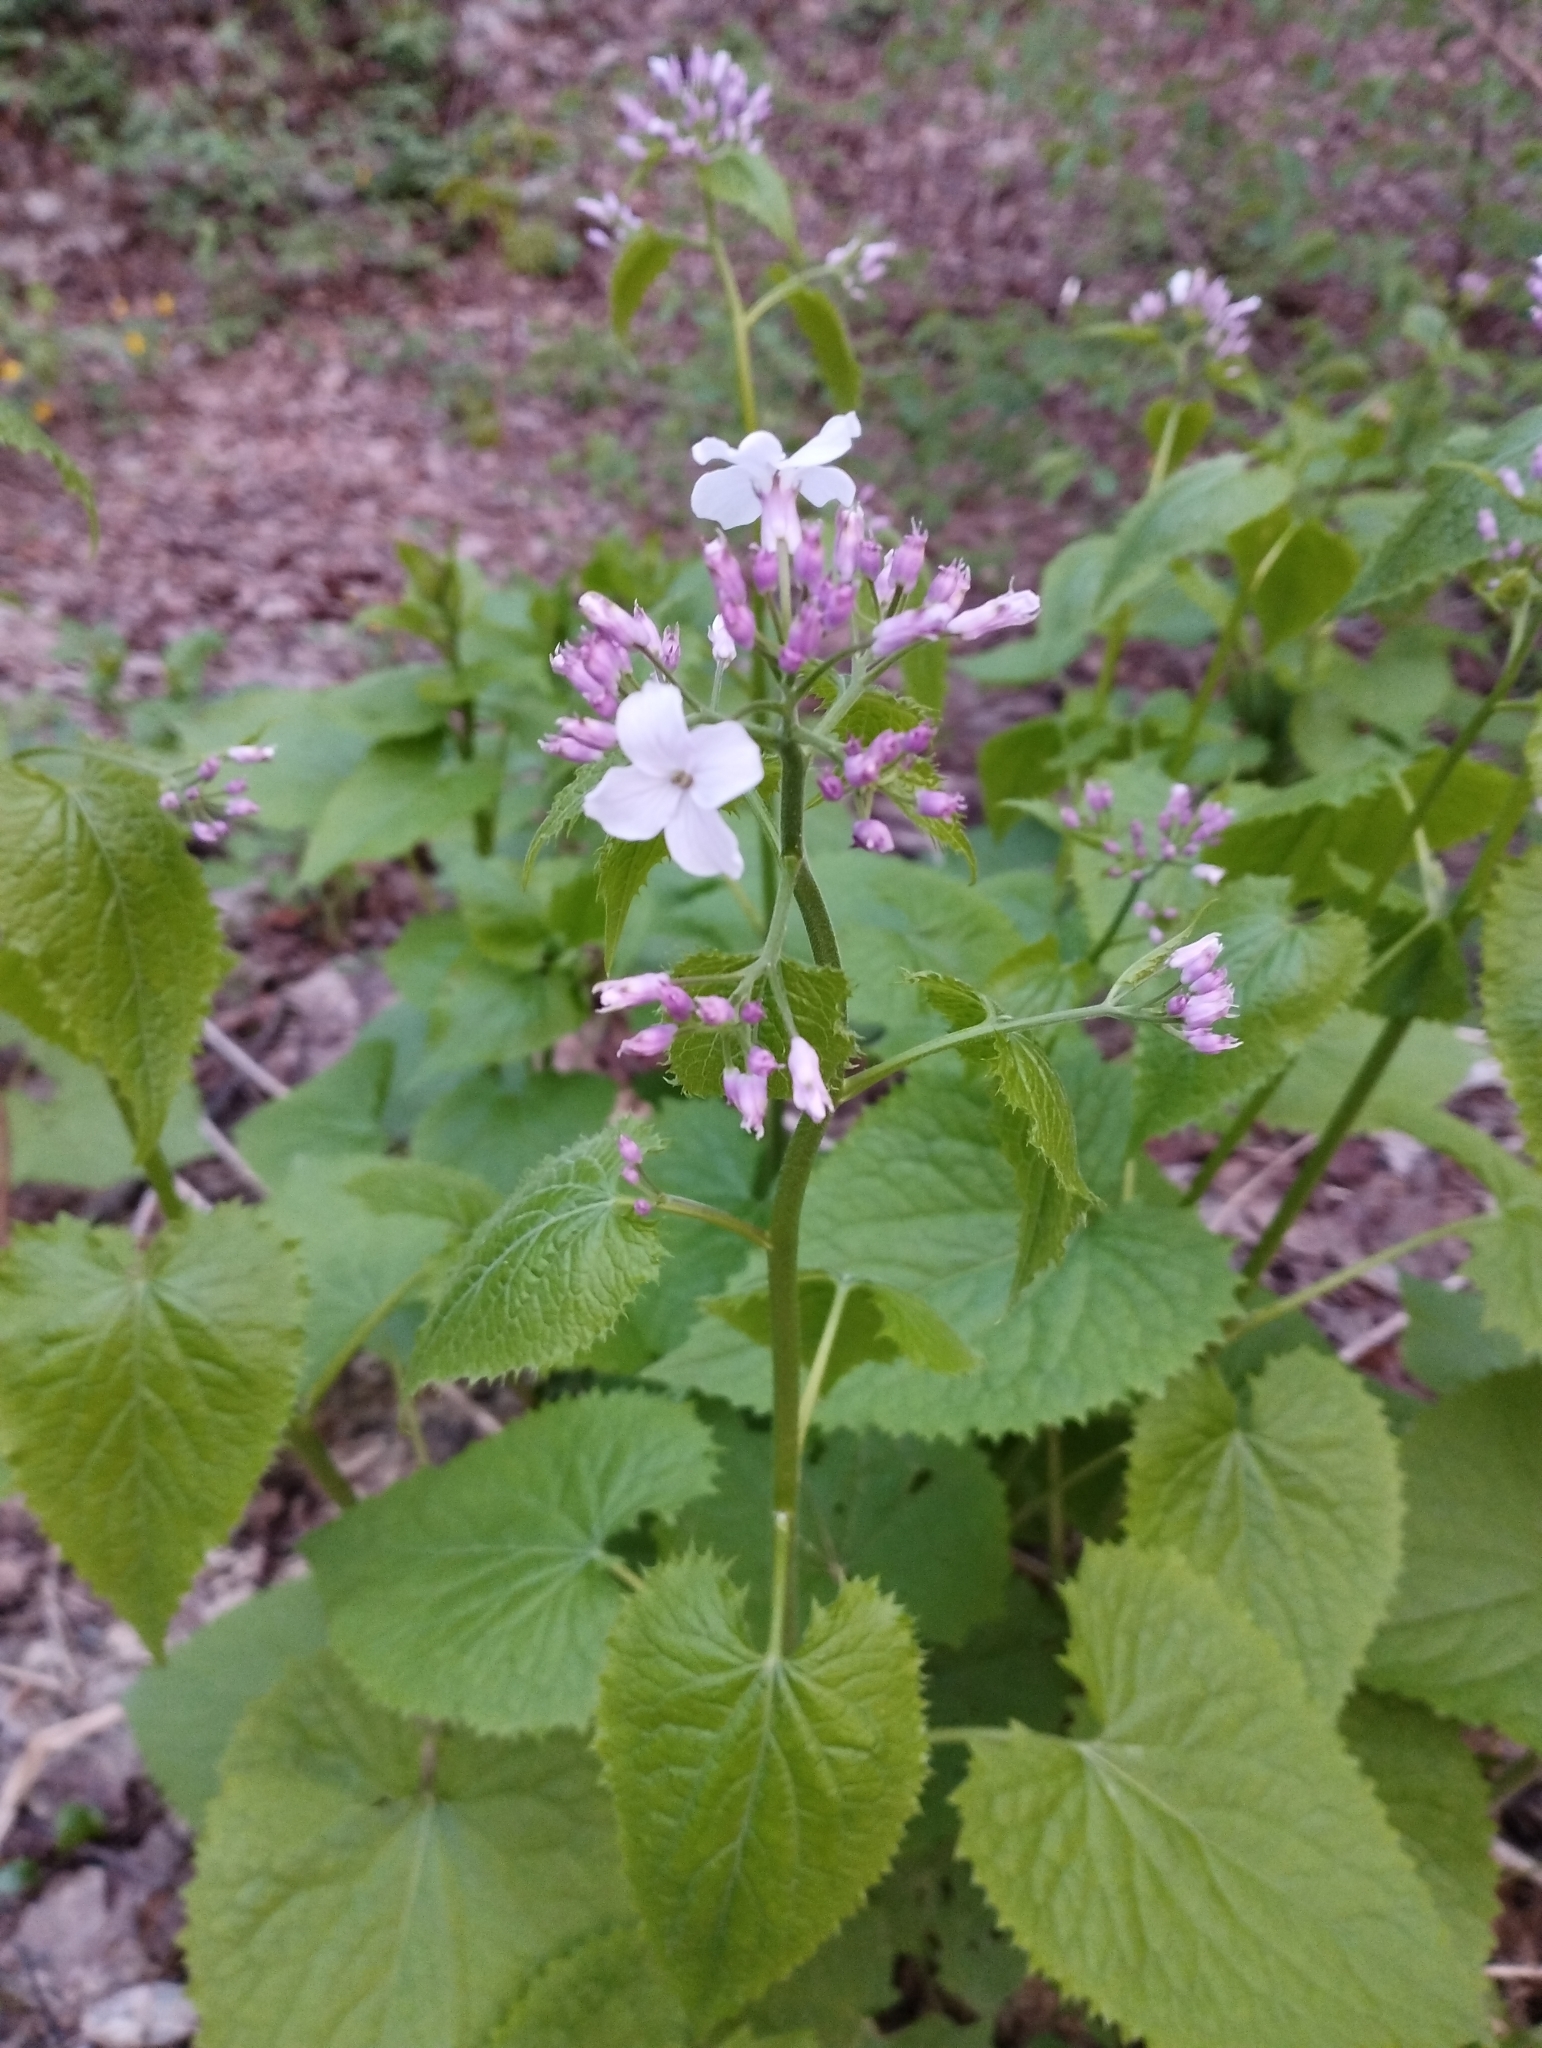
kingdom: Plantae
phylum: Tracheophyta
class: Magnoliopsida
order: Brassicales
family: Brassicaceae
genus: Lunaria
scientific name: Lunaria rediviva
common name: Perennial honesty
